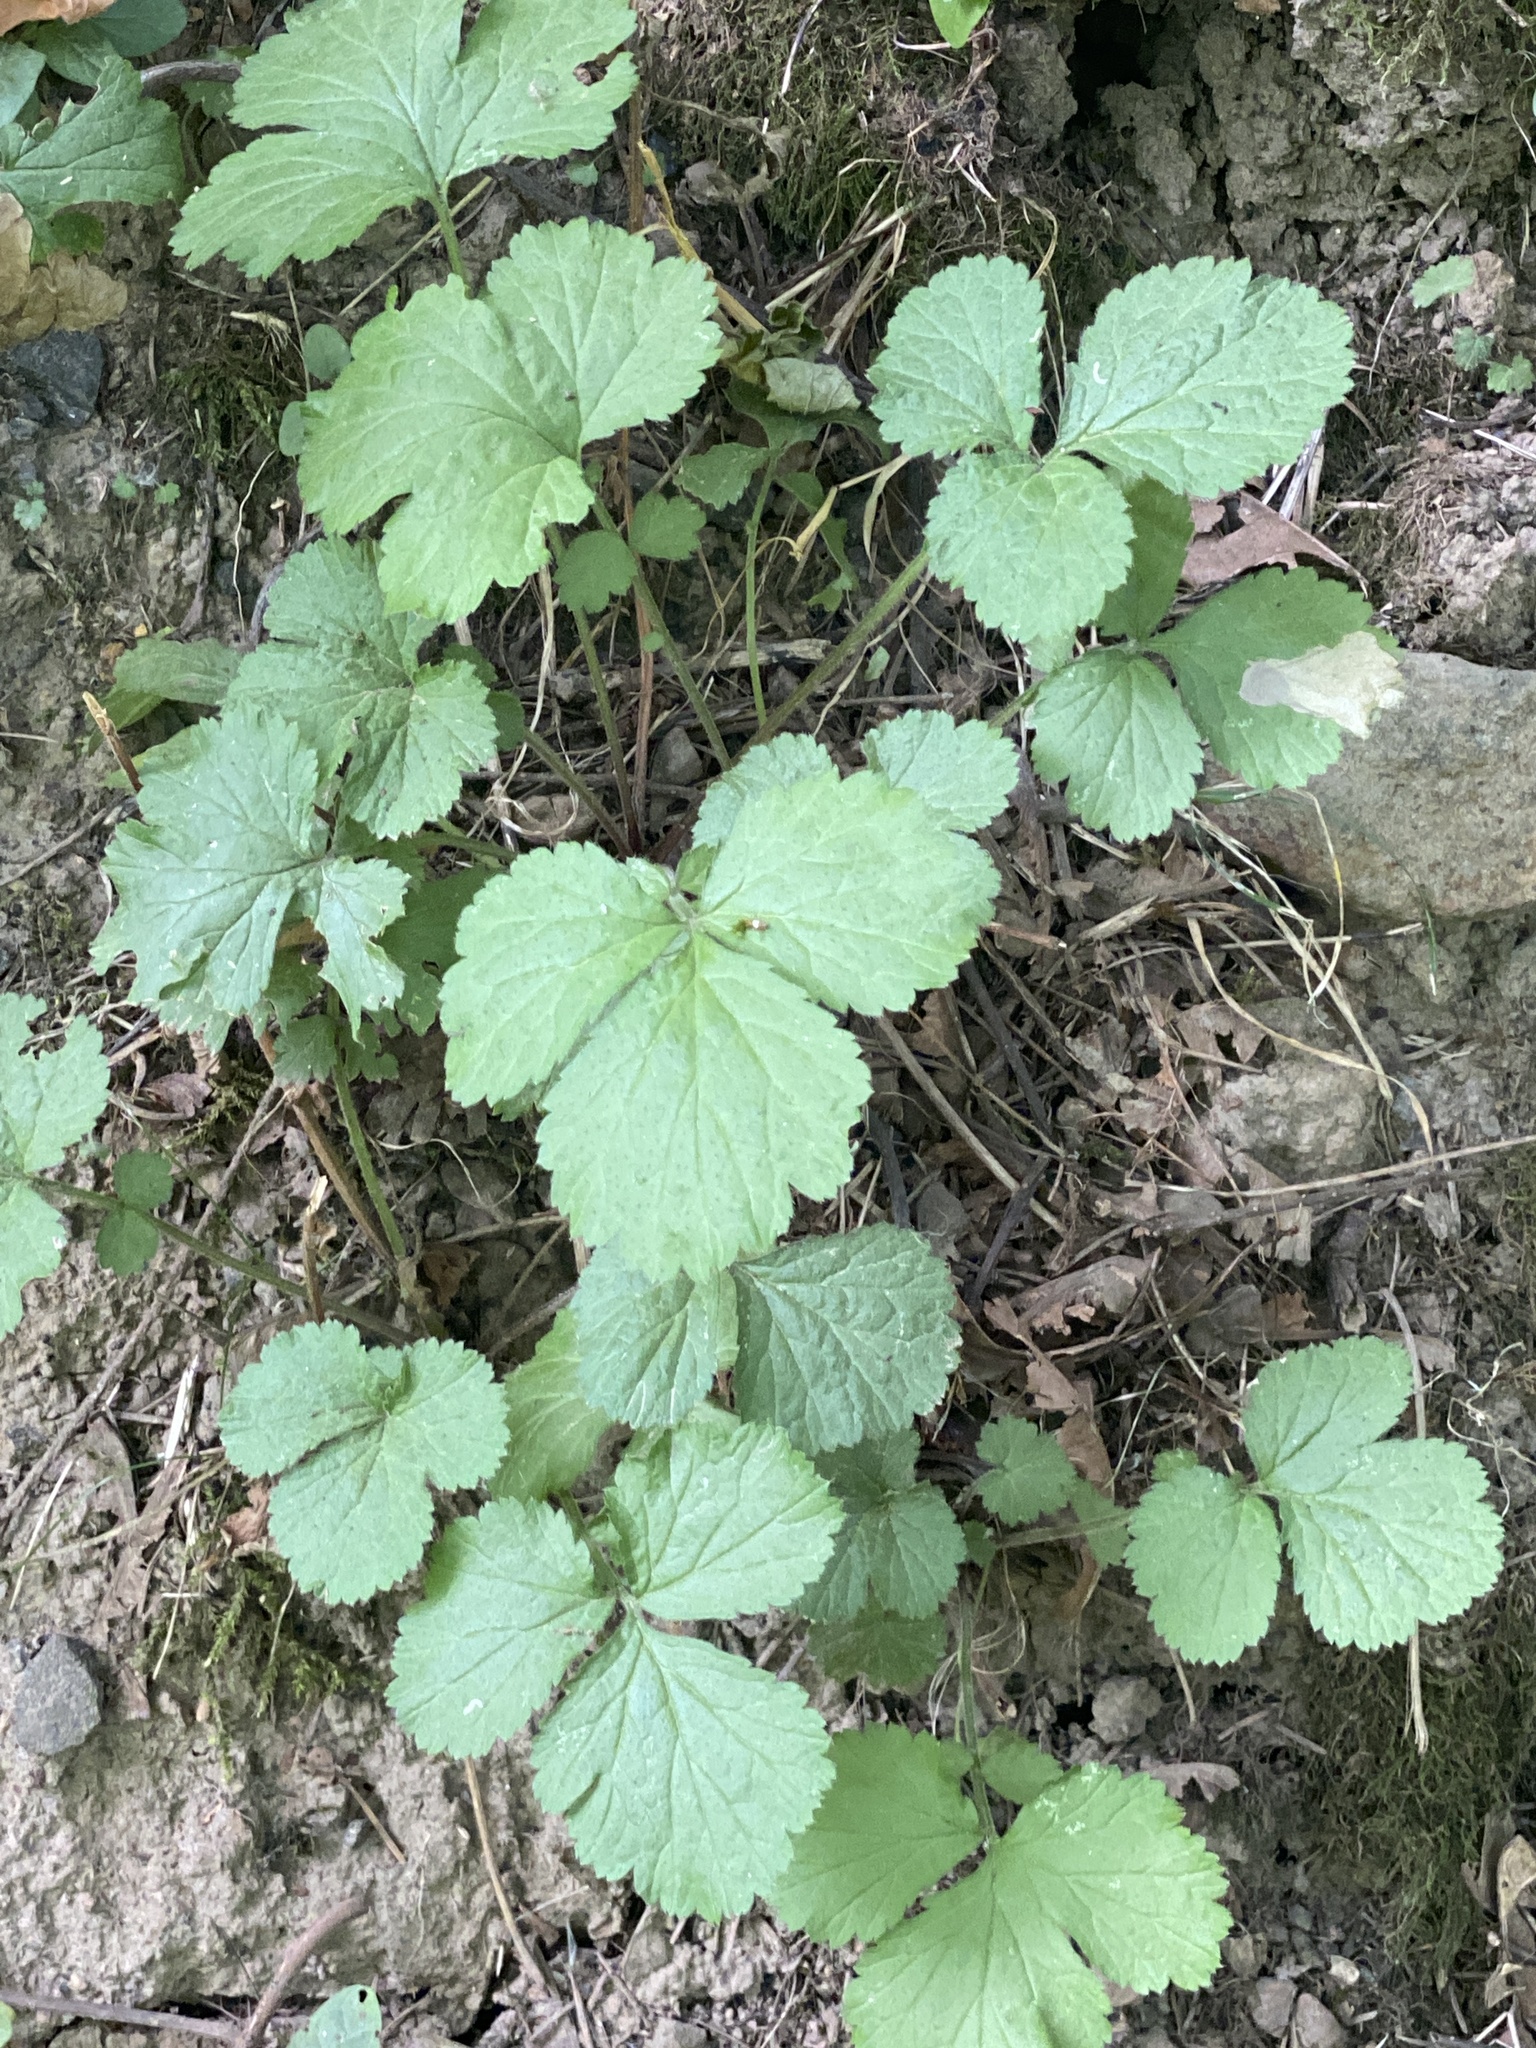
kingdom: Plantae
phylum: Tracheophyta
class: Magnoliopsida
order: Saxifragales
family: Saxifragaceae
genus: Tiarella
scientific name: Tiarella trifoliata
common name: Sugar-scoop
